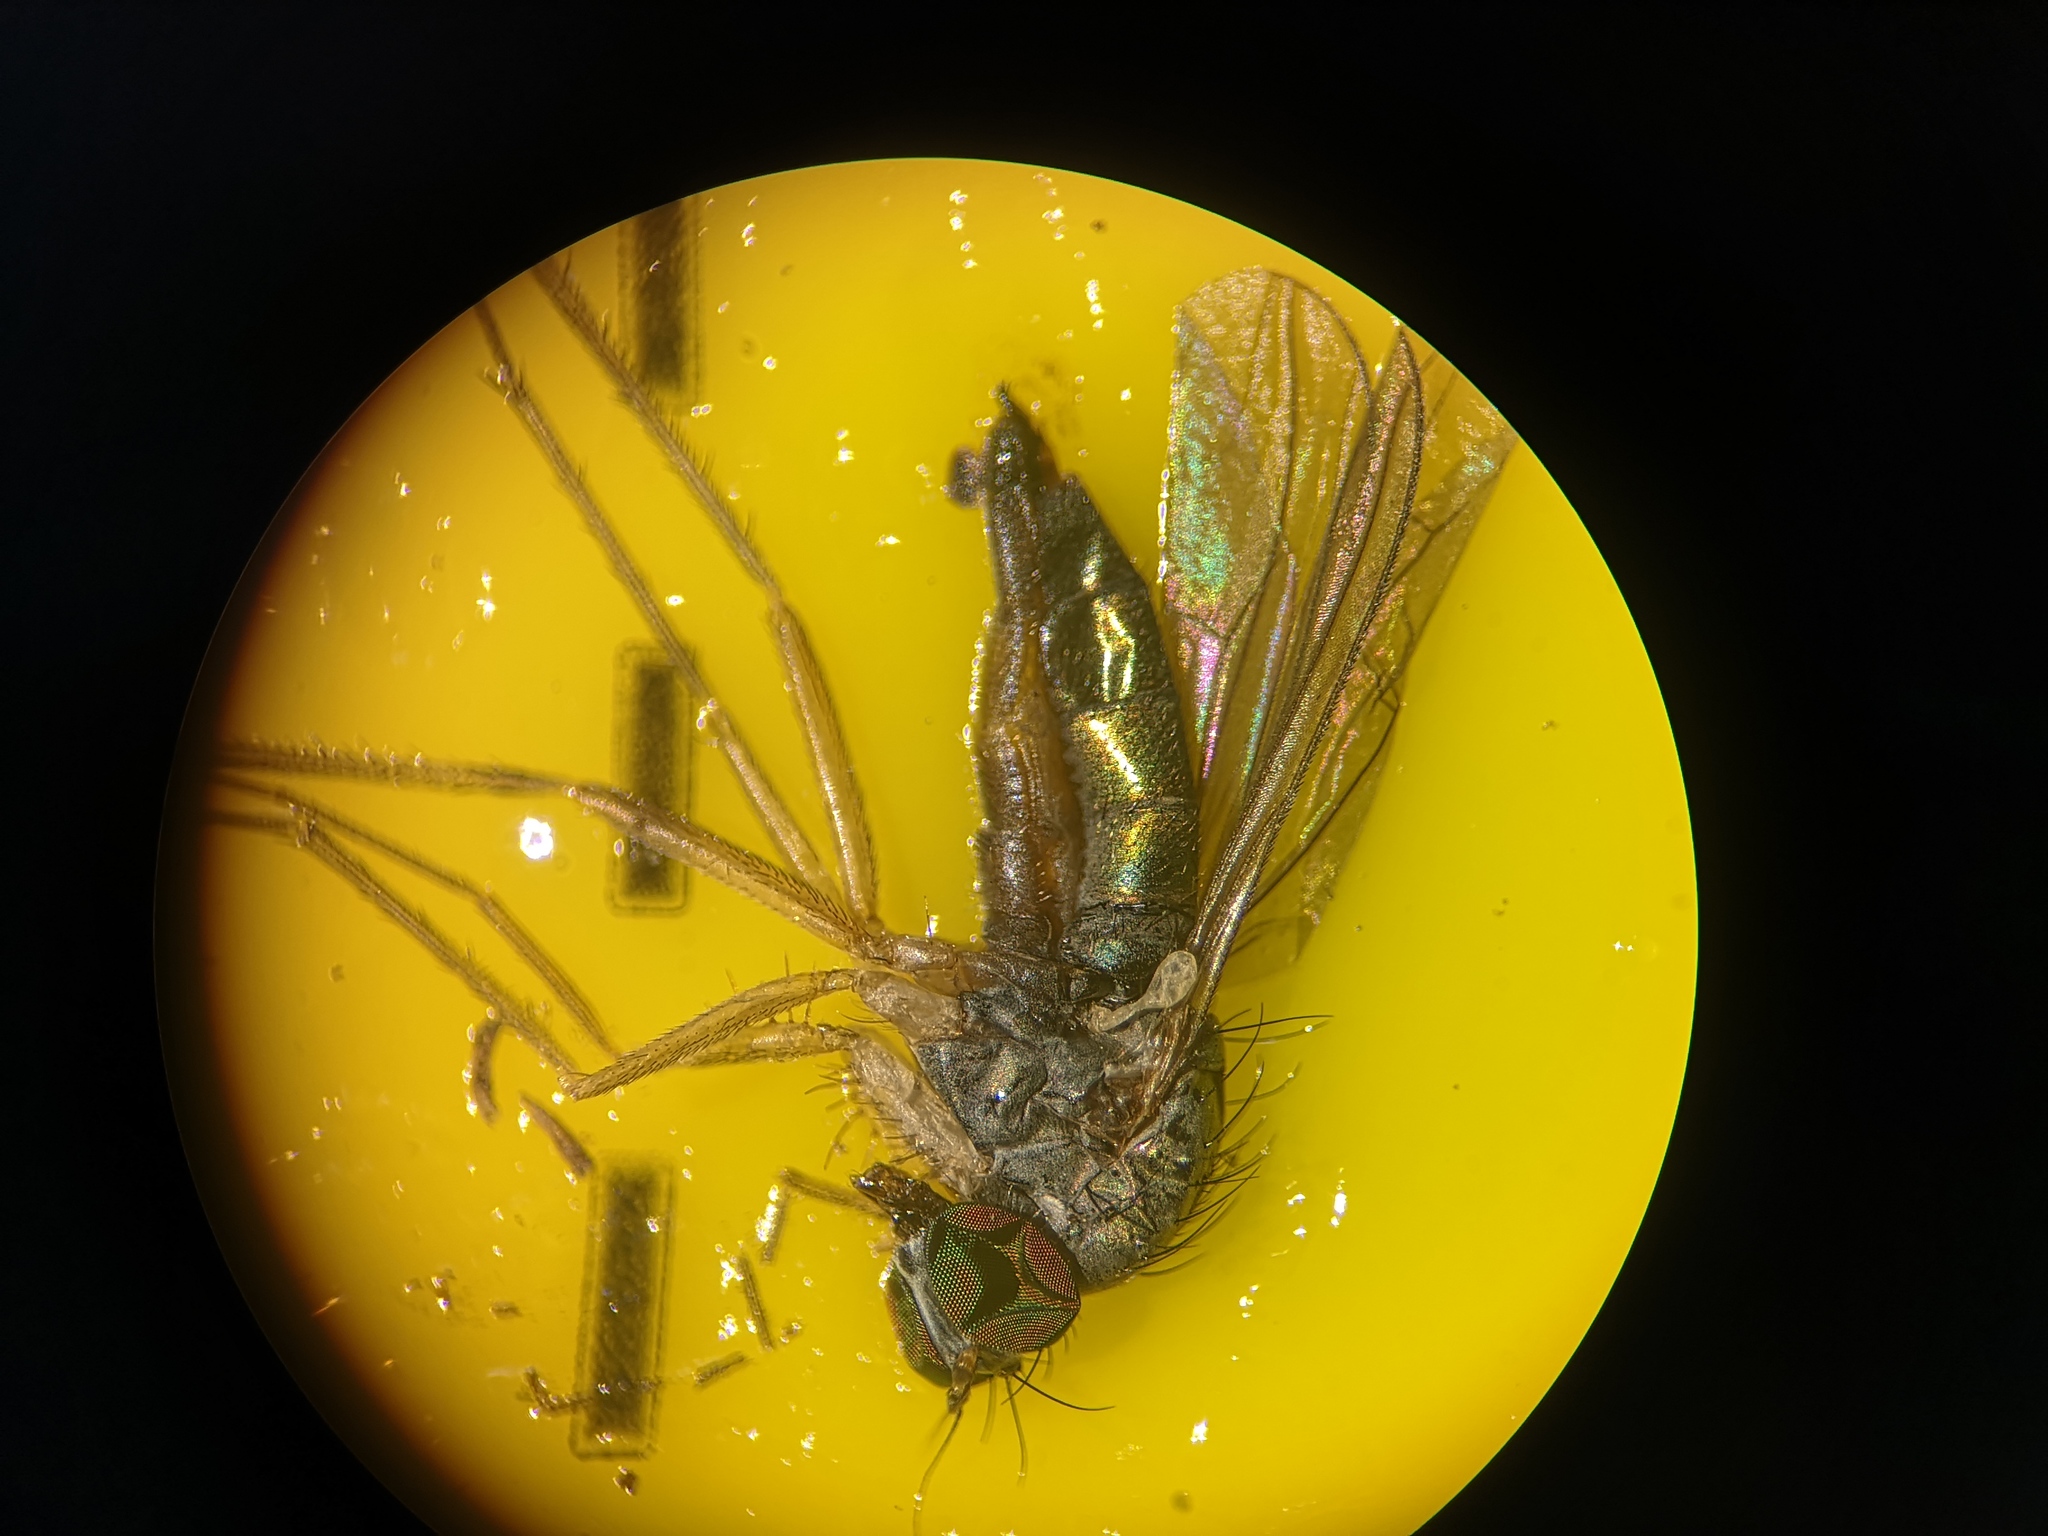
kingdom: Animalia
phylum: Arthropoda
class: Insecta
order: Diptera
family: Dolichopodidae
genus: Sciapus
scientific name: Sciapus platypterus
